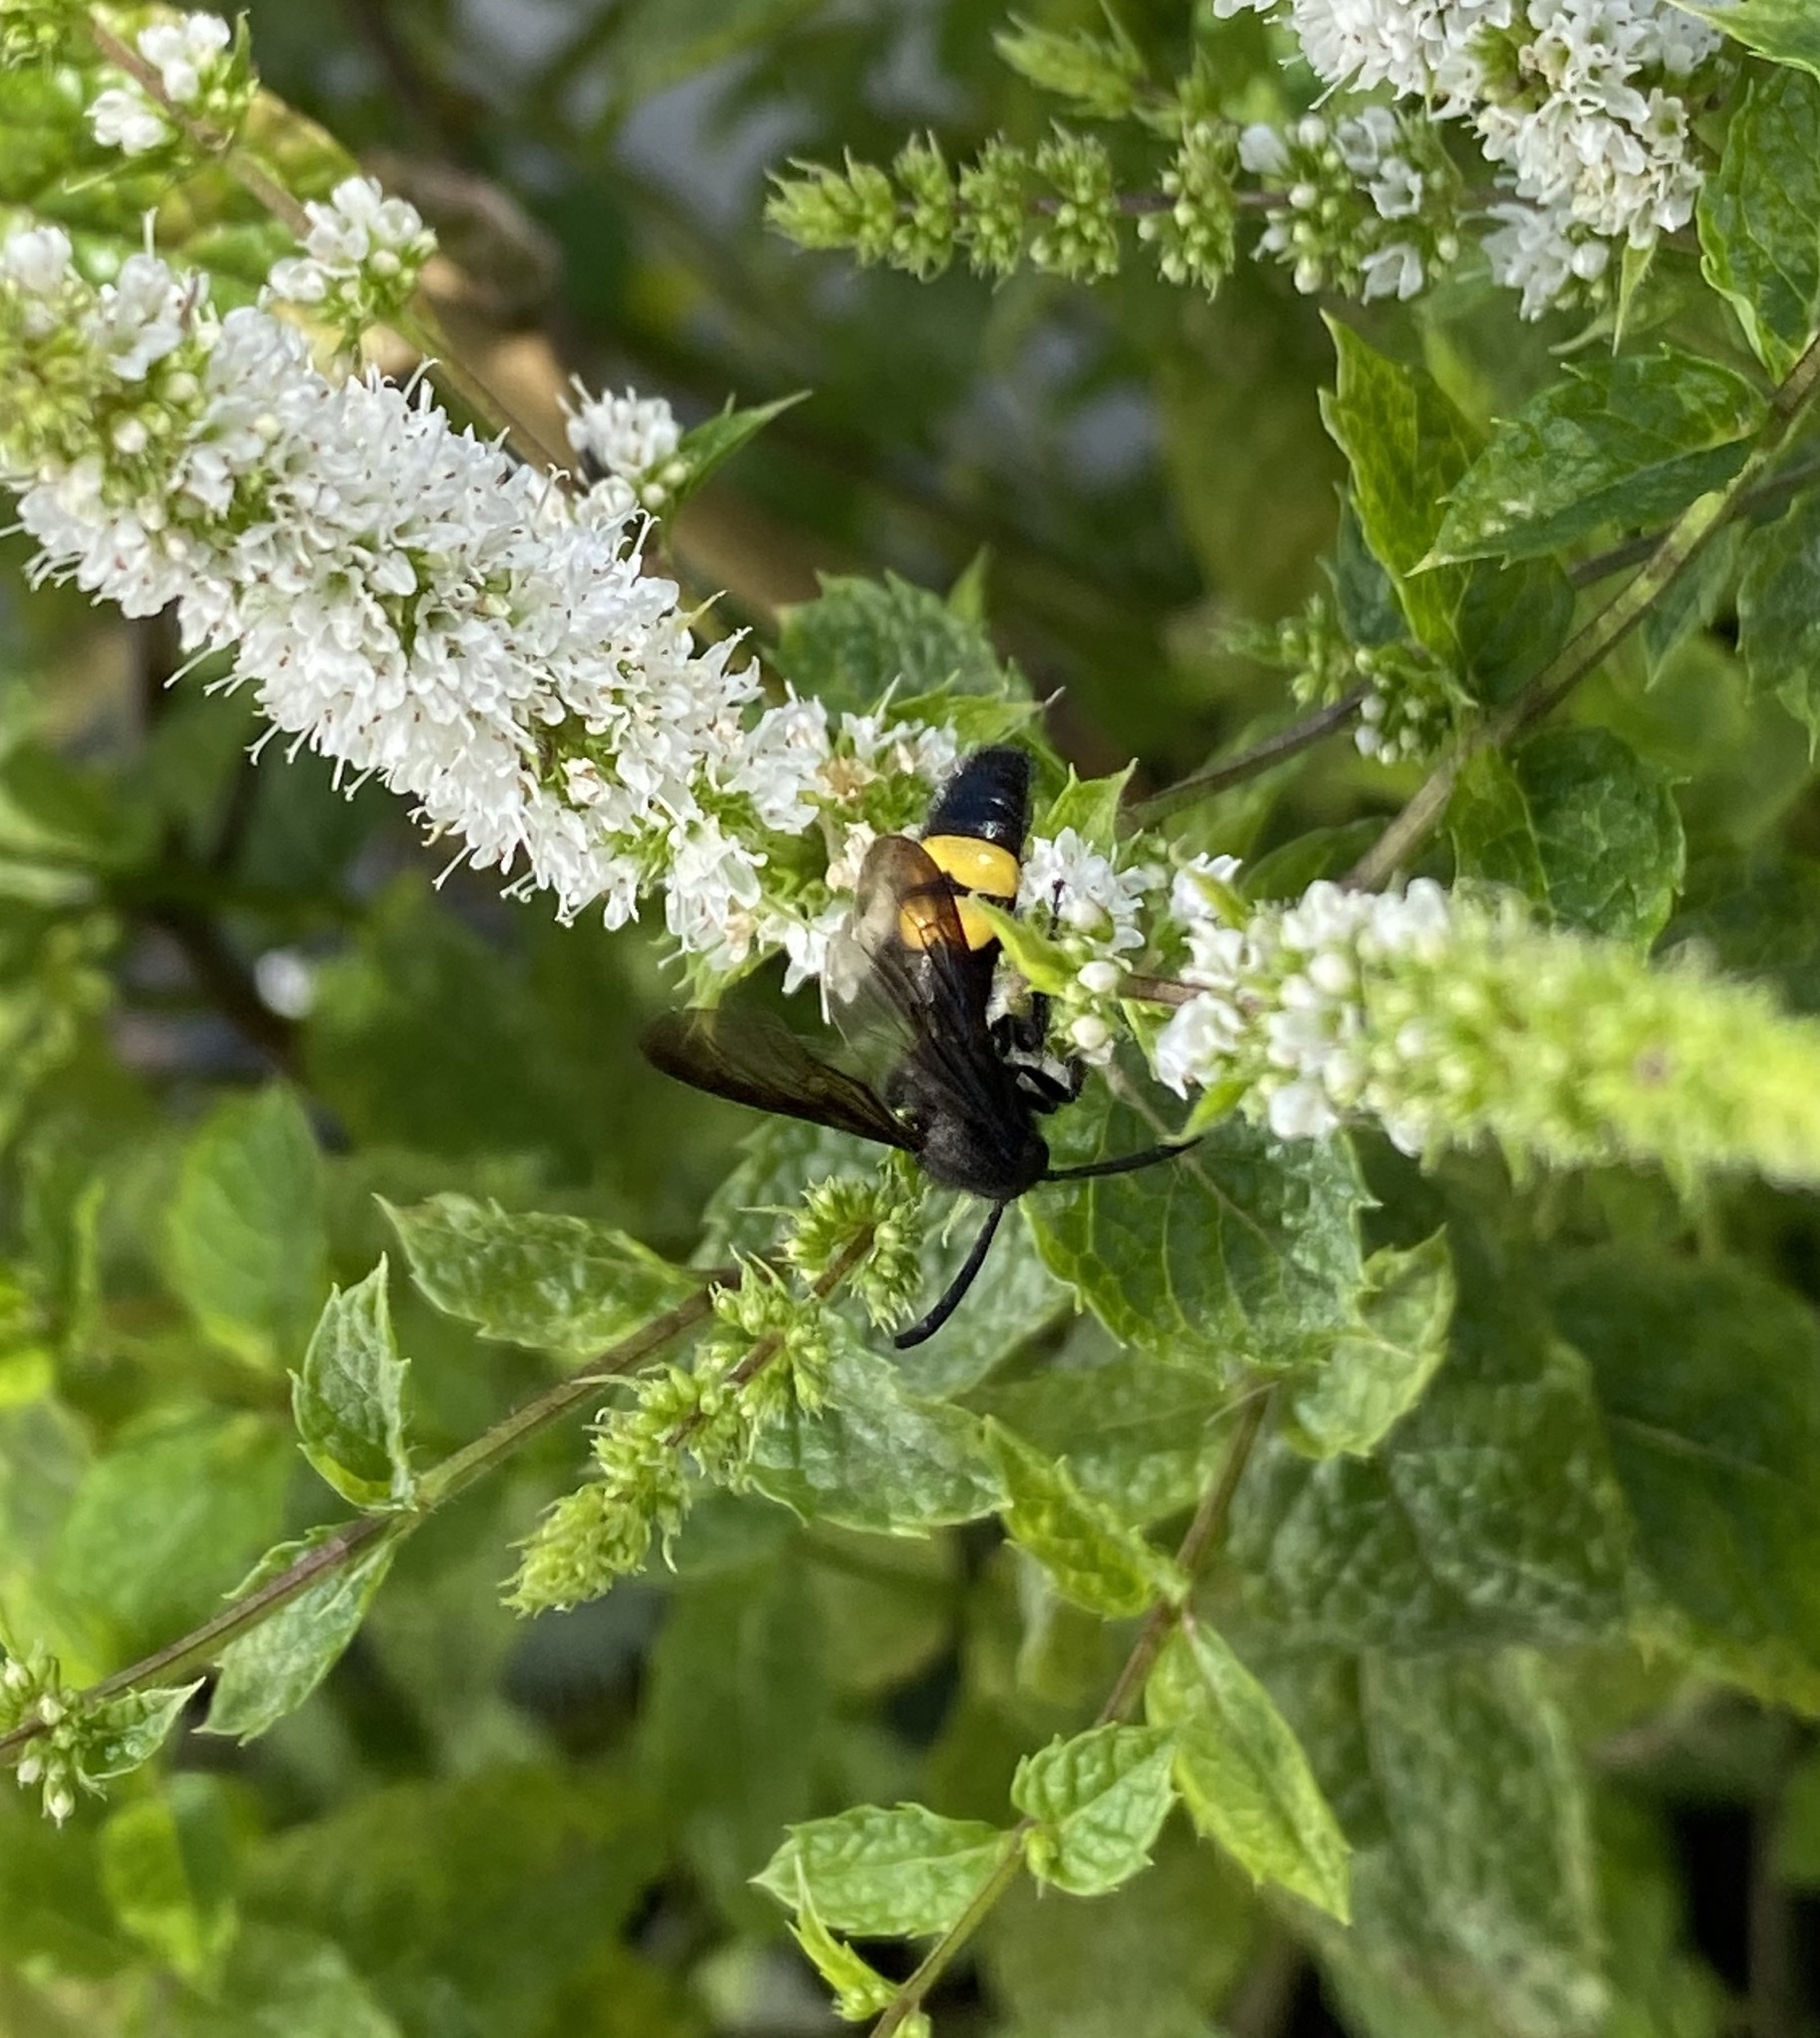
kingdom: Animalia
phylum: Arthropoda
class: Insecta
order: Hymenoptera
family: Scoliidae
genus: Scolia
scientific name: Scolia hirta
